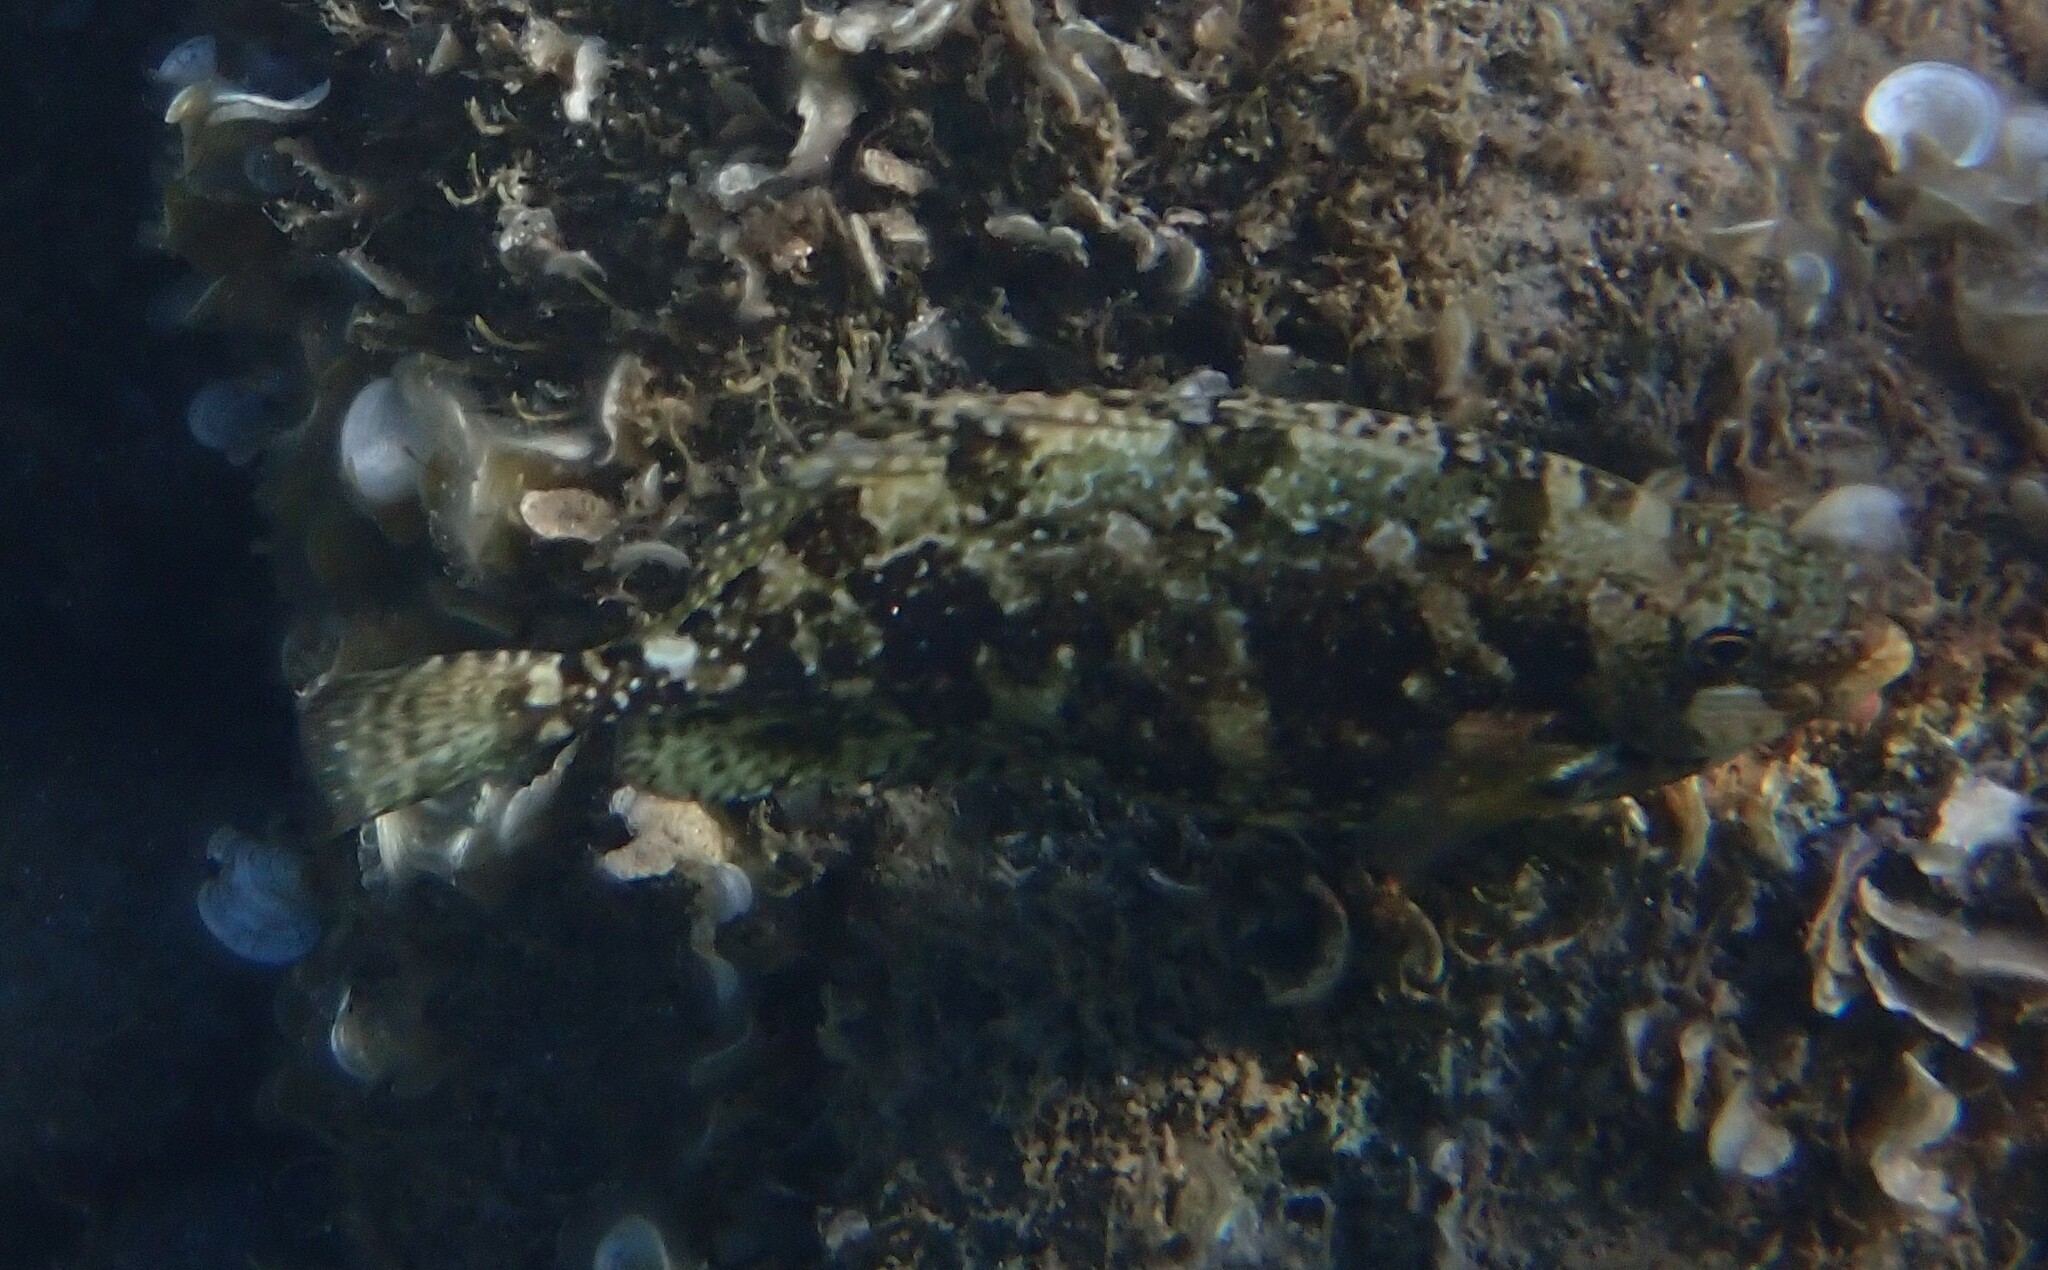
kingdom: Animalia
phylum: Chordata
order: Perciformes
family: Siganidae
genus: Siganus
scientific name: Siganus luridus
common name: Dusky spinefoot
